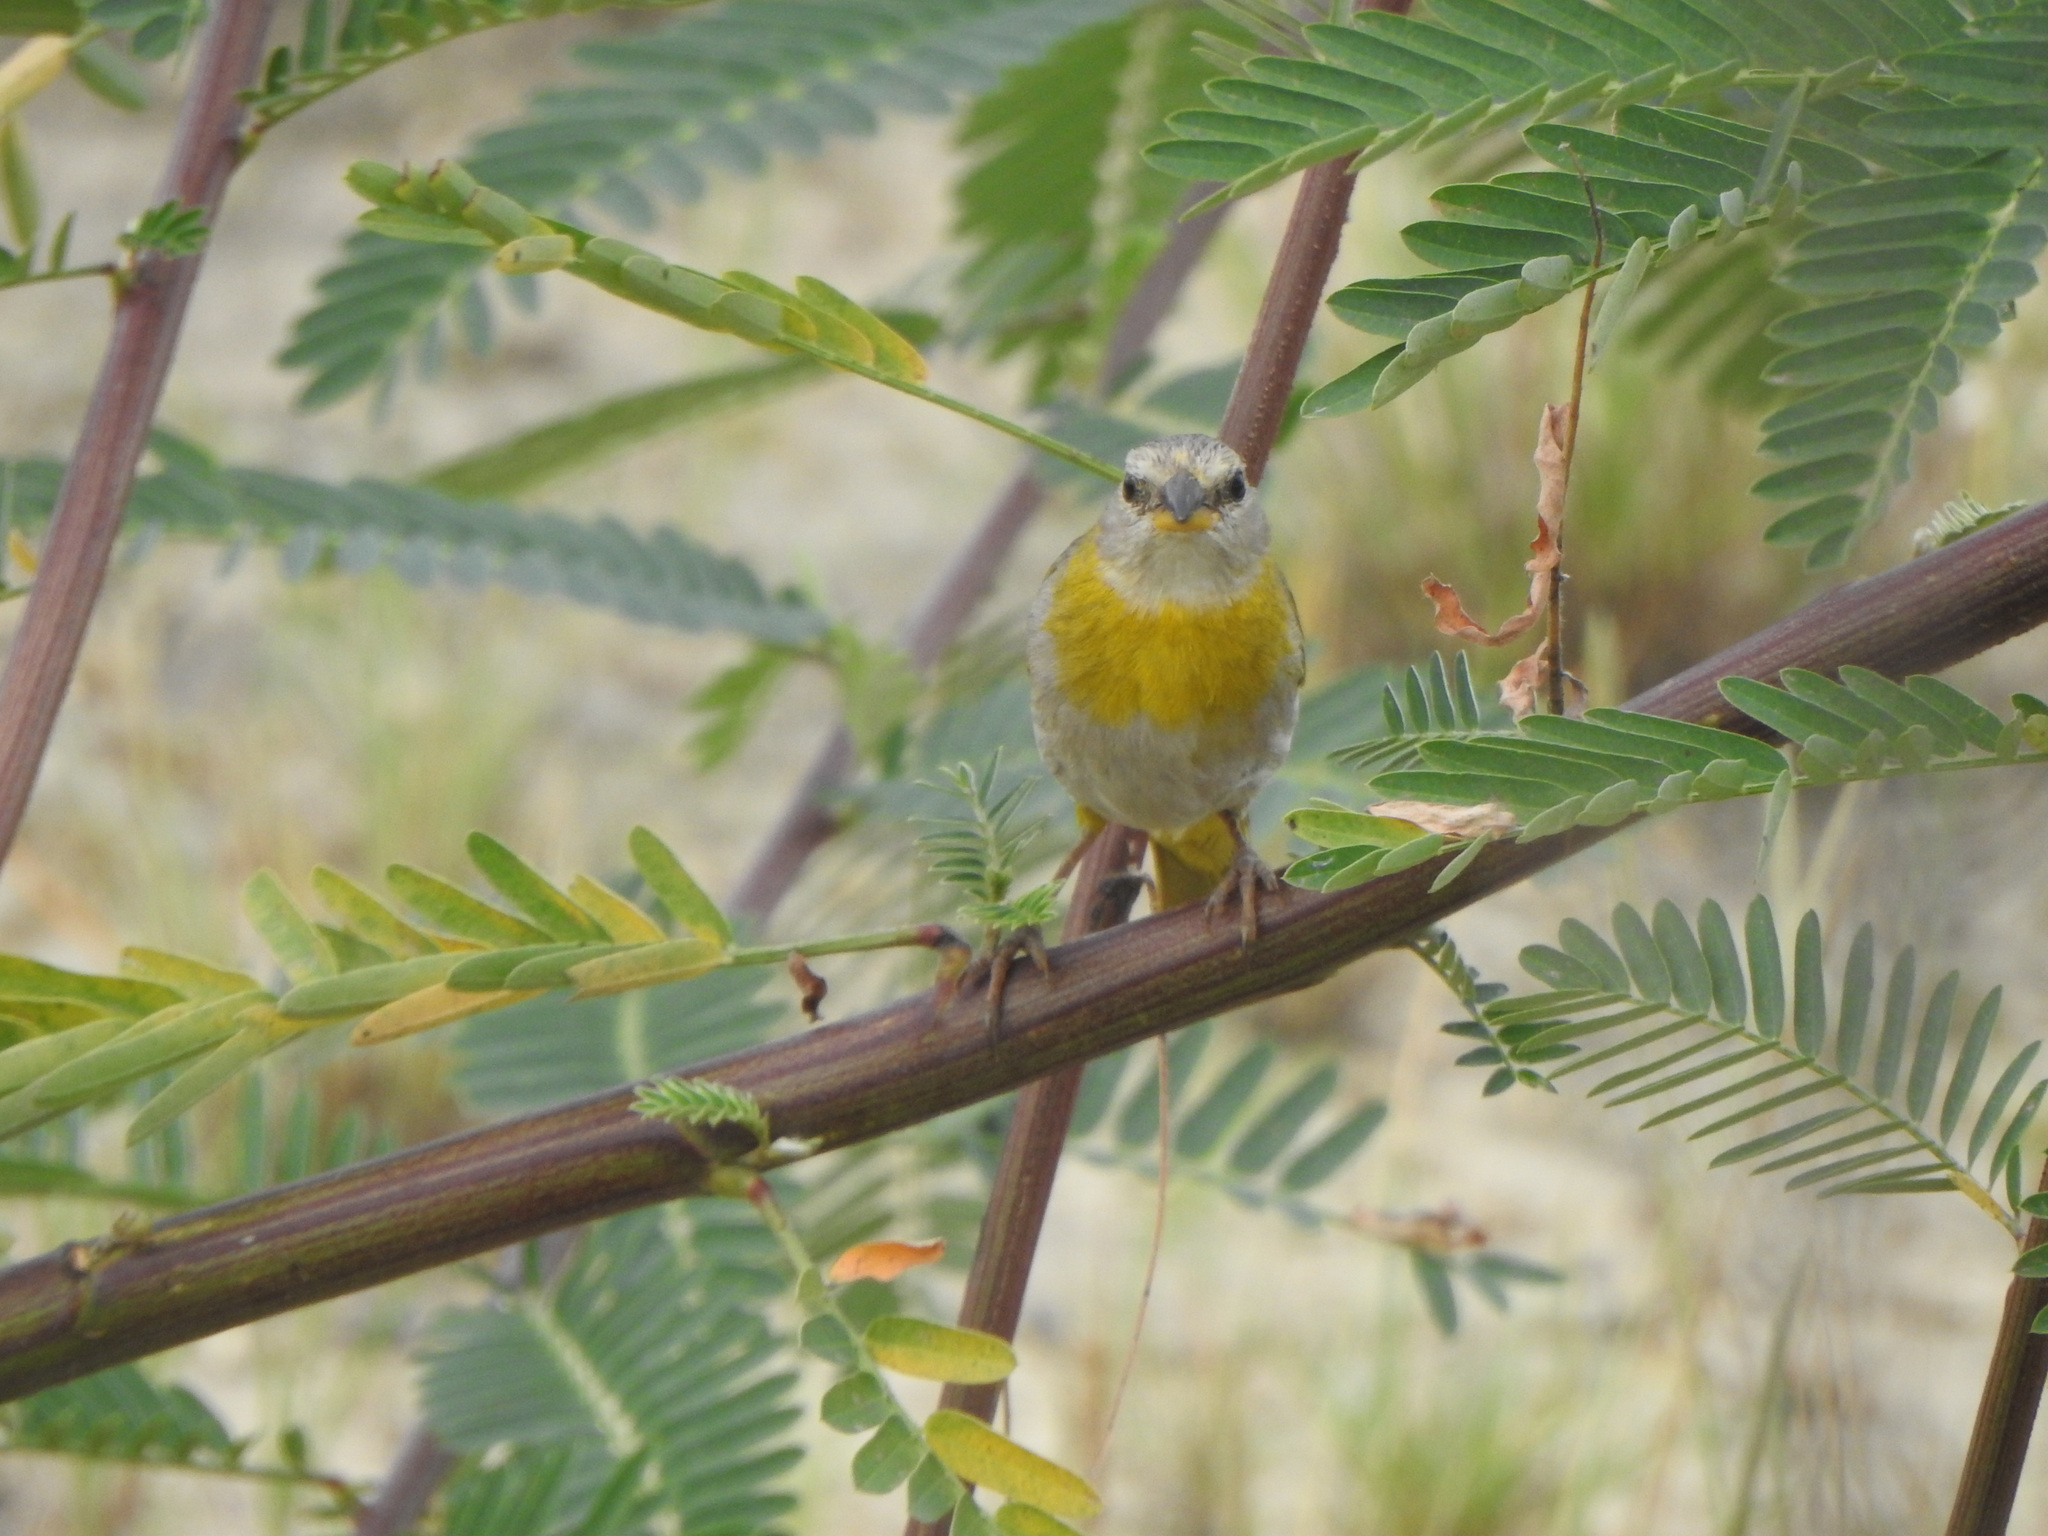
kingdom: Animalia
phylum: Chordata
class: Aves
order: Passeriformes
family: Thraupidae
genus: Sicalis
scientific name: Sicalis flaveola
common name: Saffron finch
